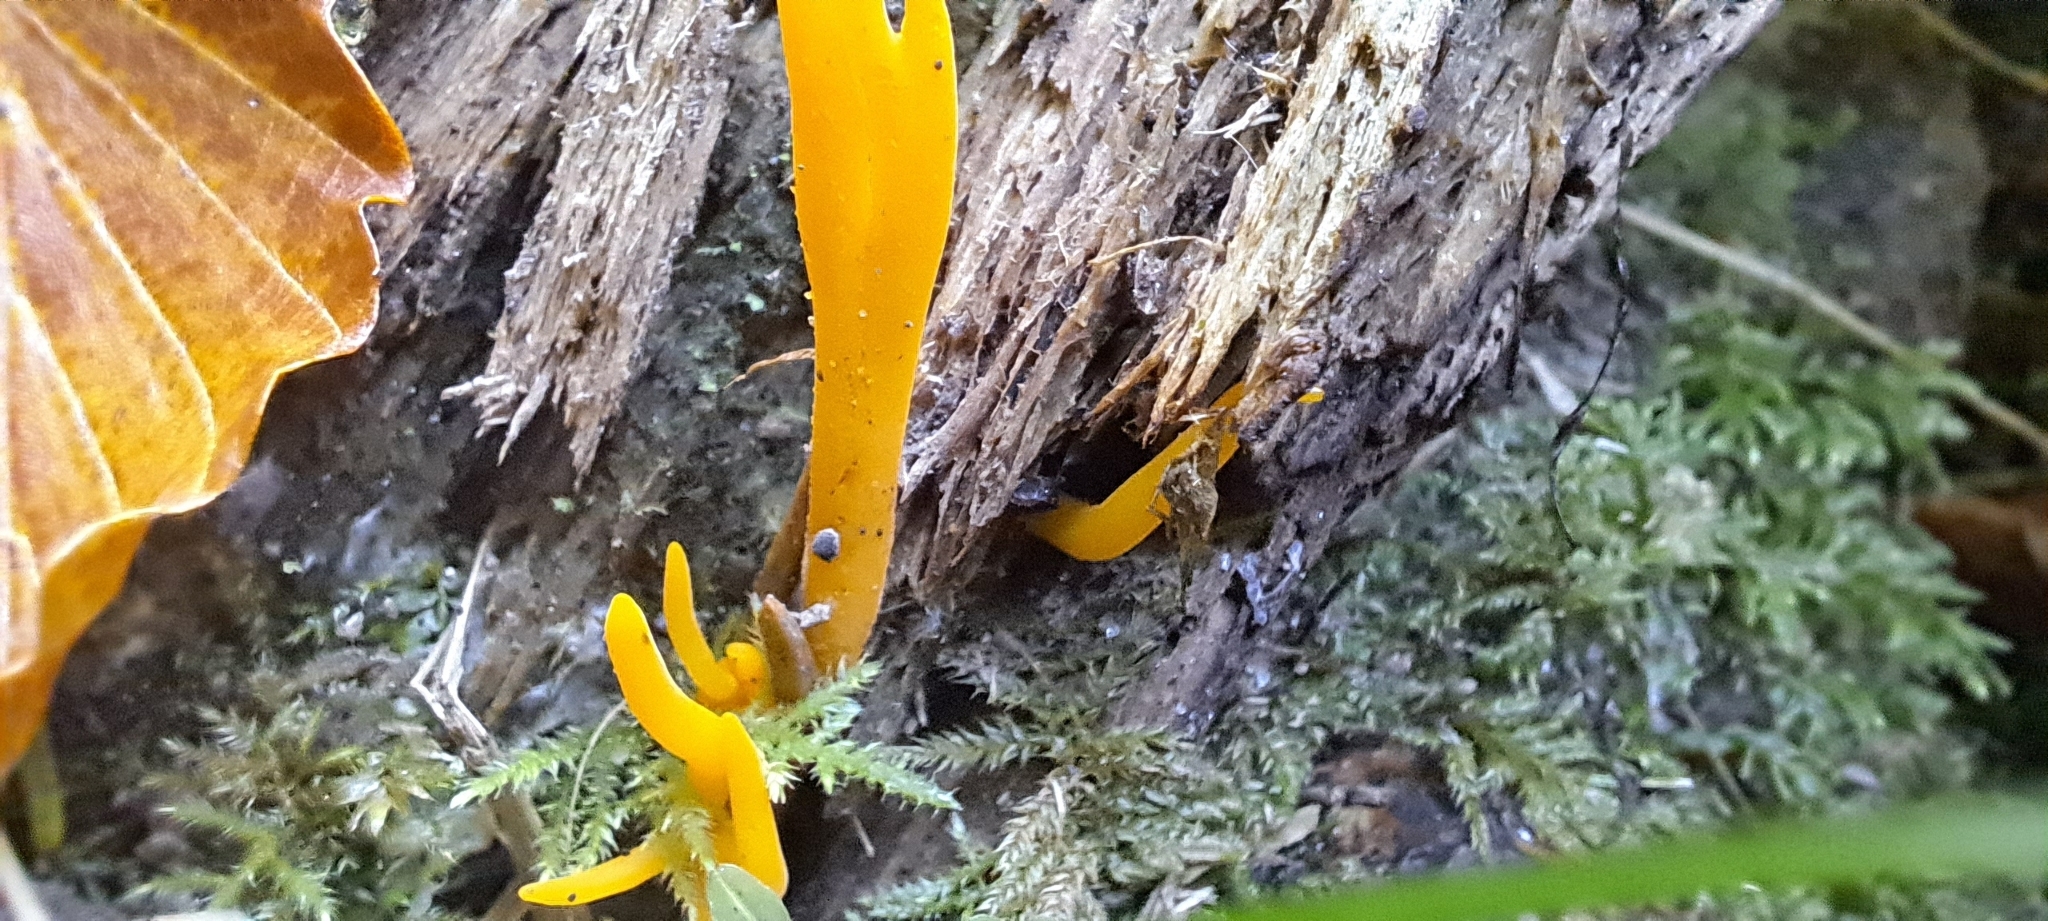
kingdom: Fungi
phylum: Basidiomycota
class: Dacrymycetes
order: Dacrymycetales
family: Dacrymycetaceae
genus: Calocera
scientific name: Calocera viscosa
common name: Yellow stagshorn
